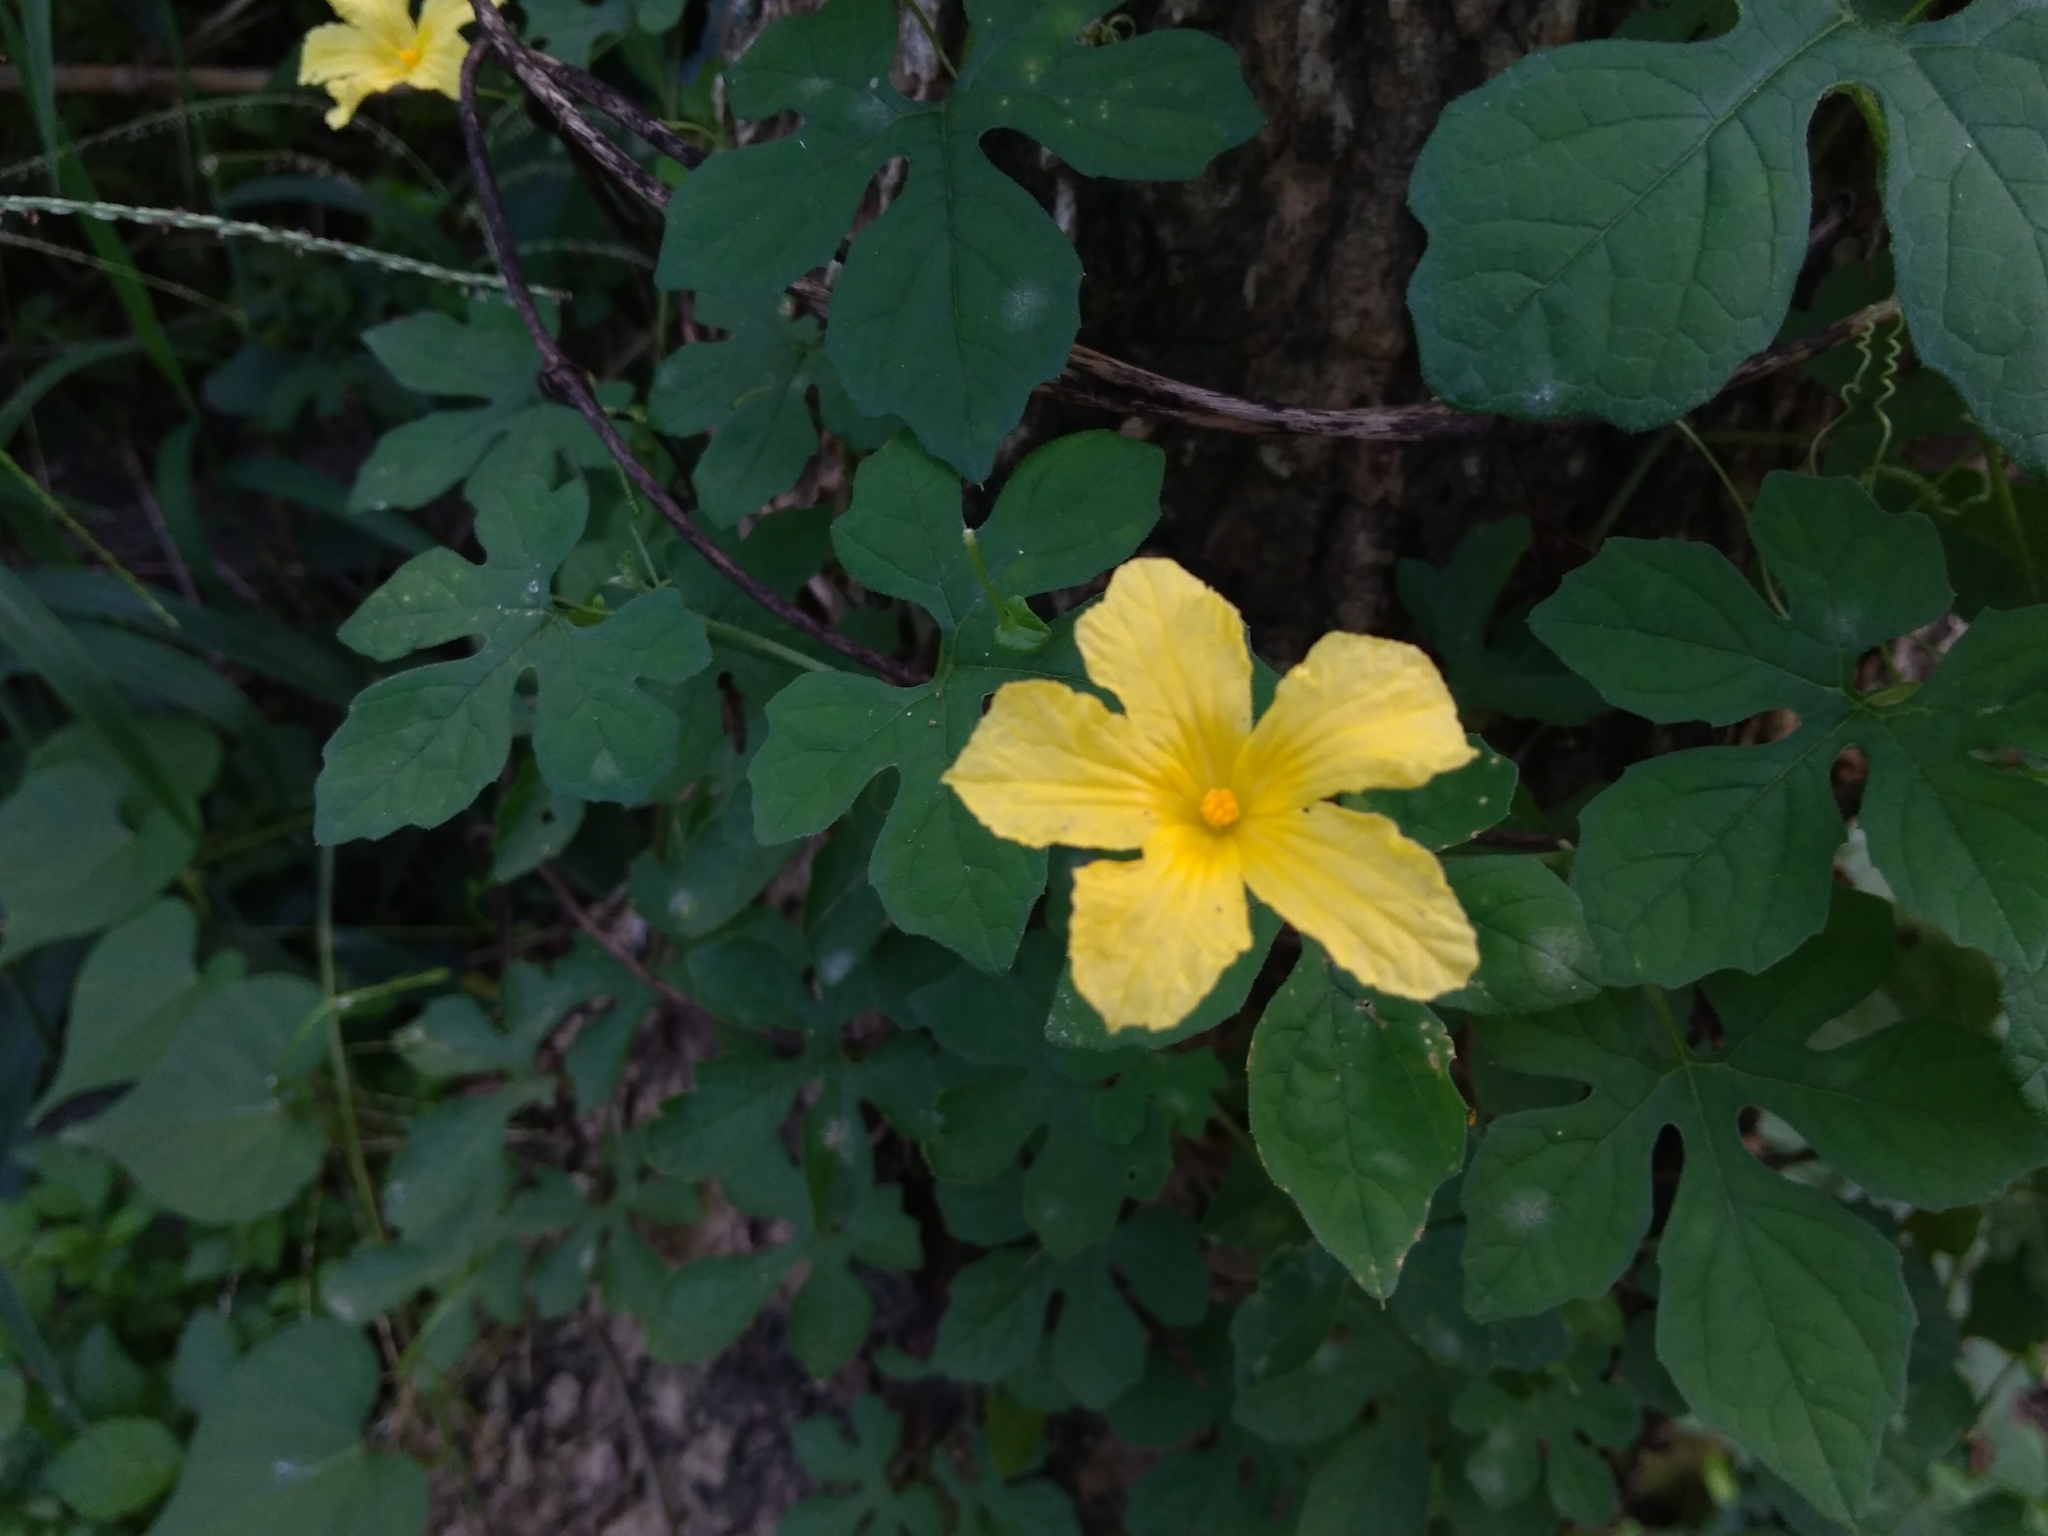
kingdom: Plantae
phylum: Tracheophyta
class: Magnoliopsida
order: Cucurbitales
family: Cucurbitaceae
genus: Momordica
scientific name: Momordica charantia
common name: Balsampear
